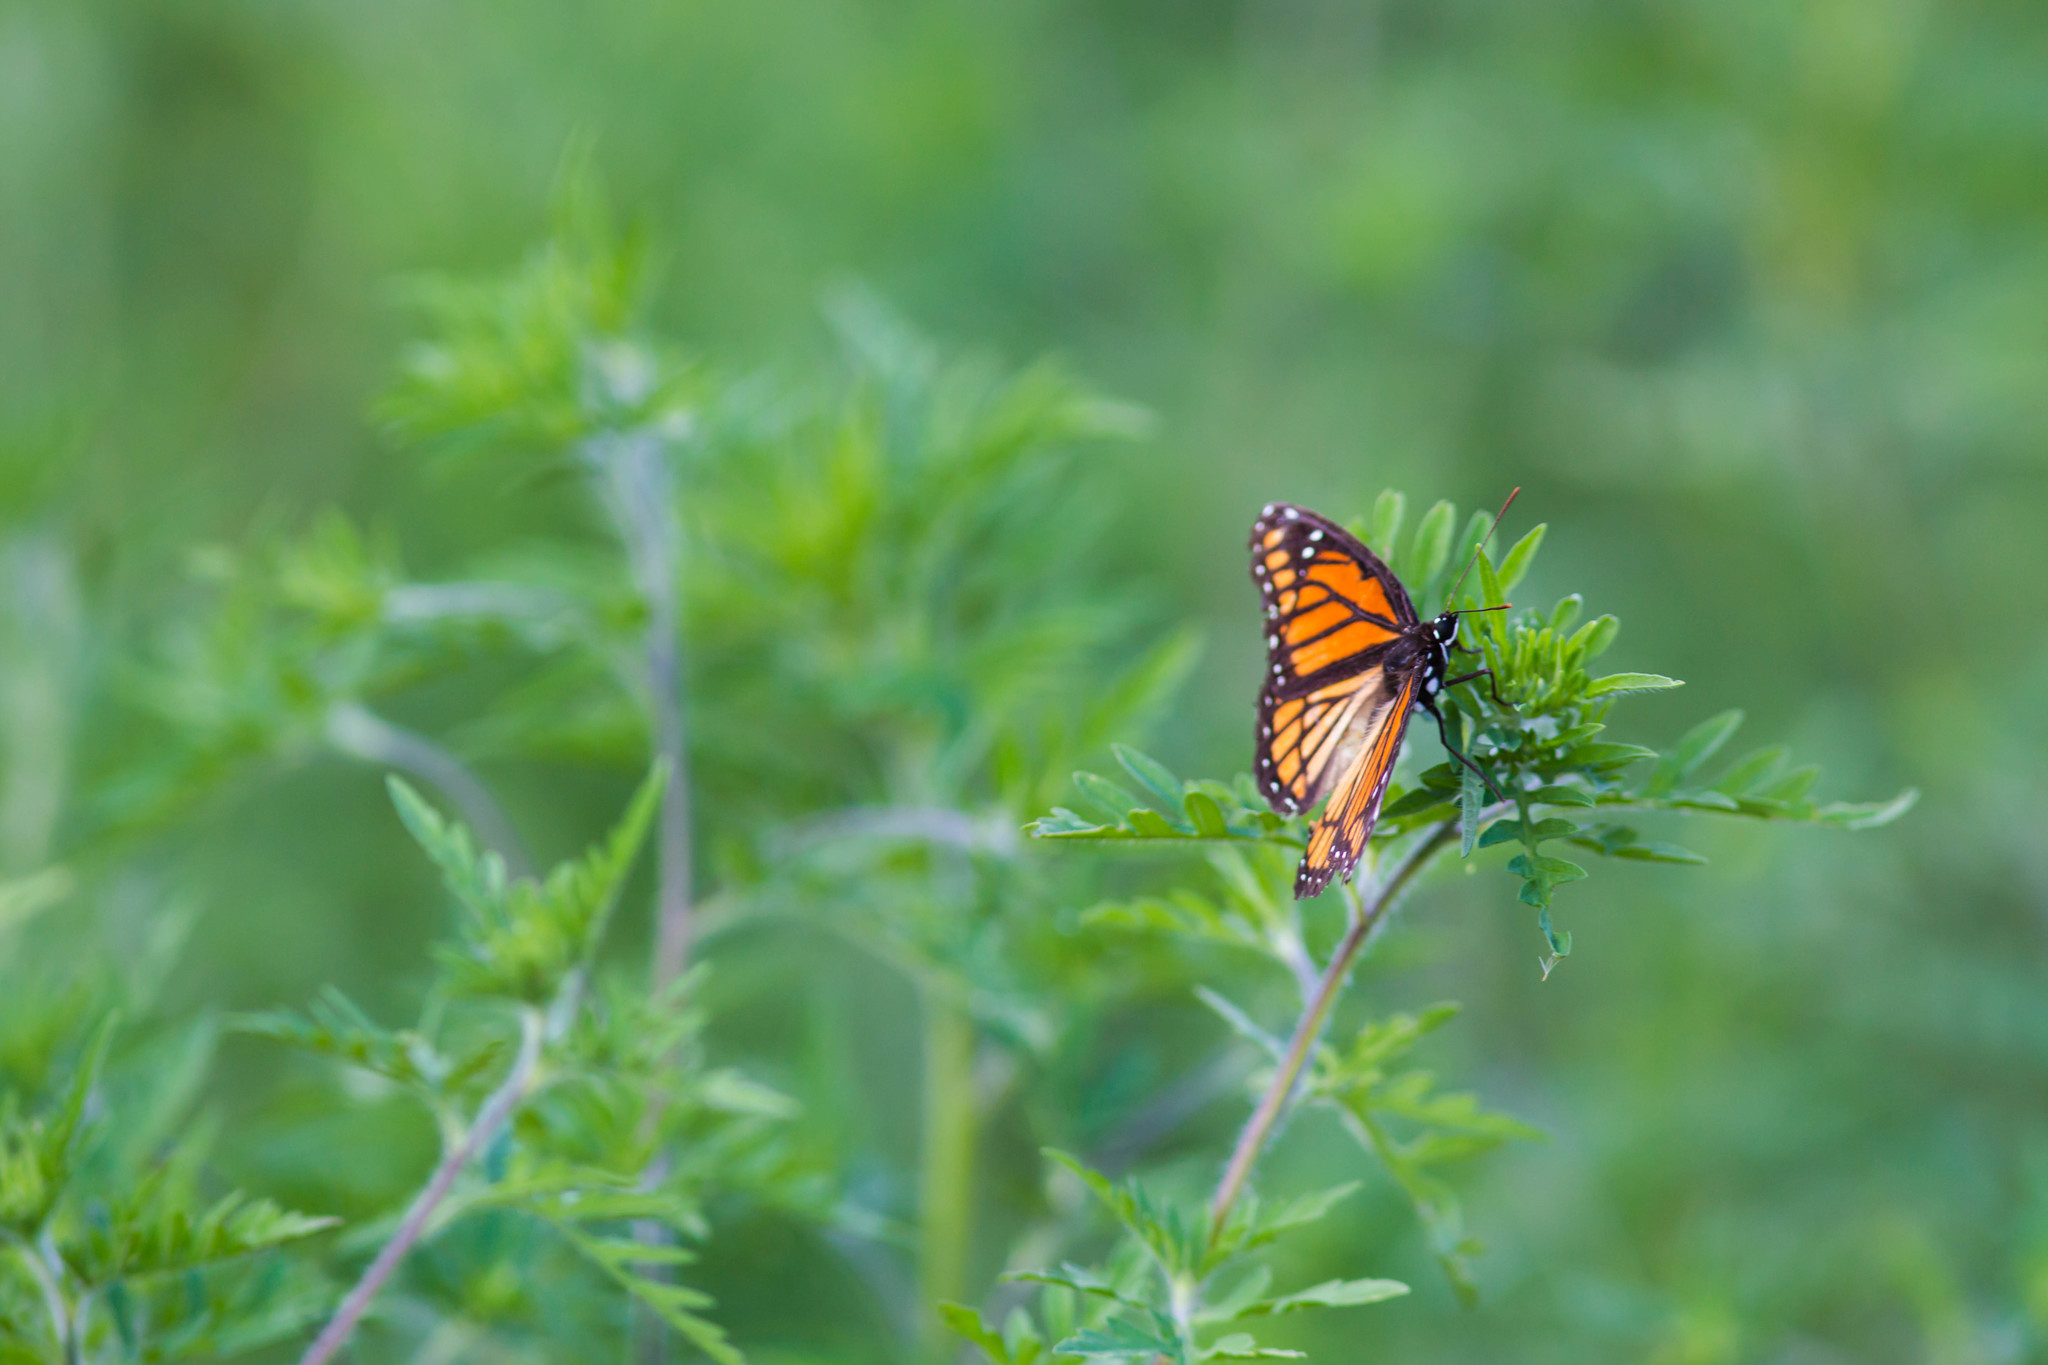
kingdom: Animalia
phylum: Arthropoda
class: Insecta
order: Lepidoptera
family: Nymphalidae
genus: Limenitis
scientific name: Limenitis archippus
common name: Viceroy
